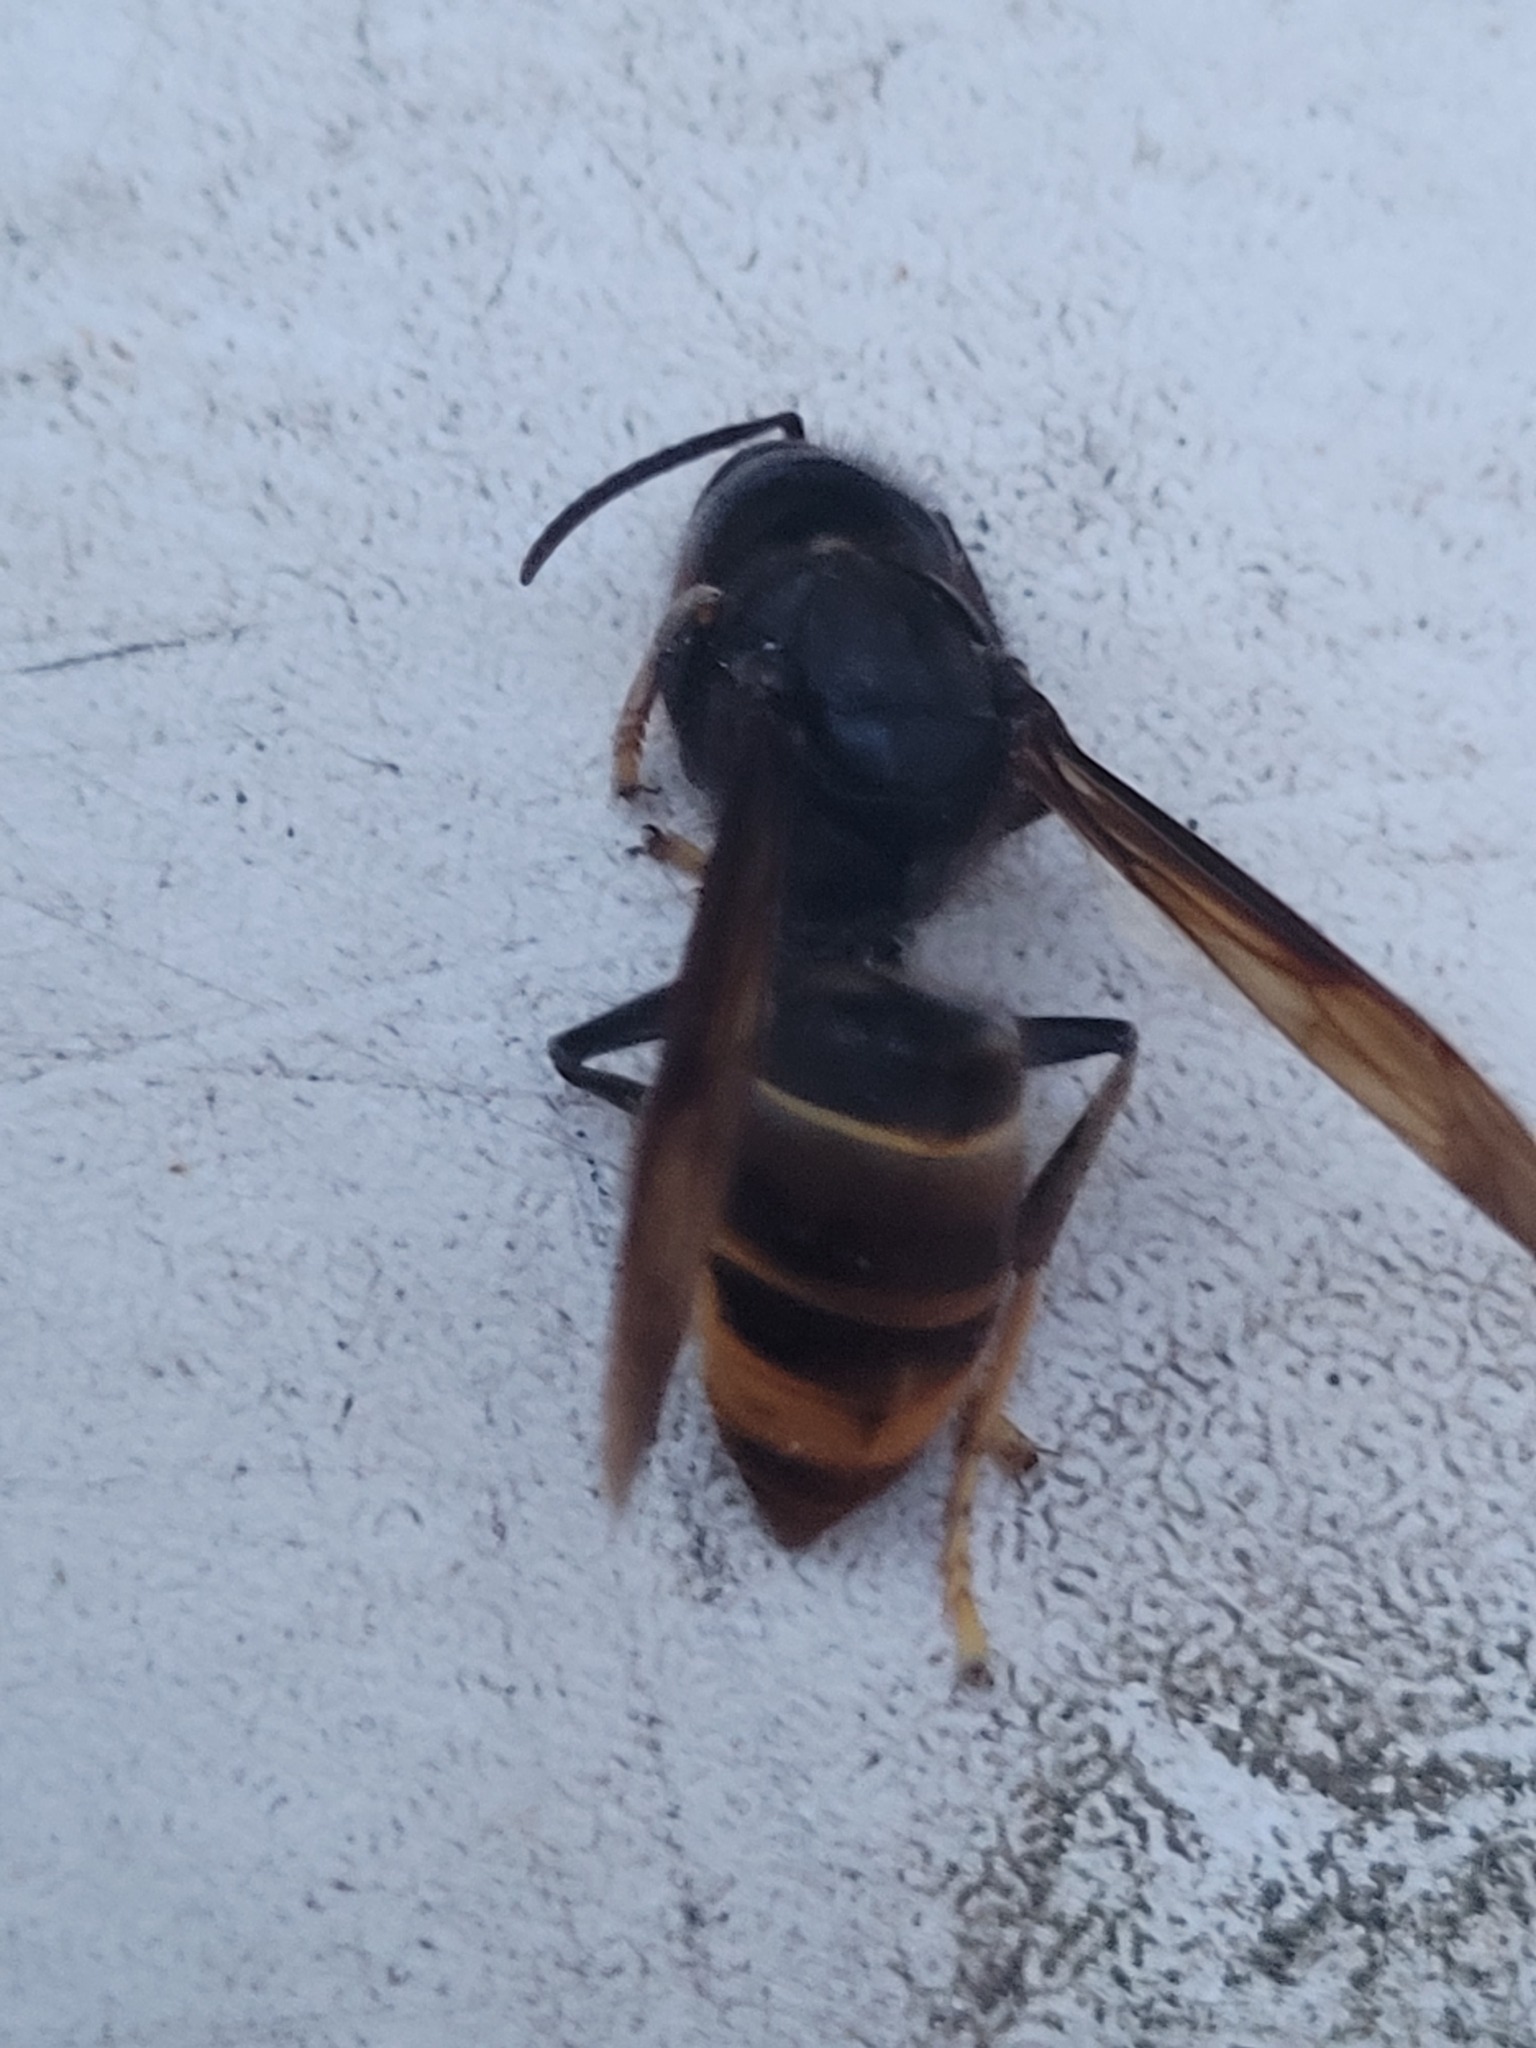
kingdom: Animalia
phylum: Arthropoda
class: Insecta
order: Hymenoptera
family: Vespidae
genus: Vespa
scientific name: Vespa velutina
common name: Asian hornet
